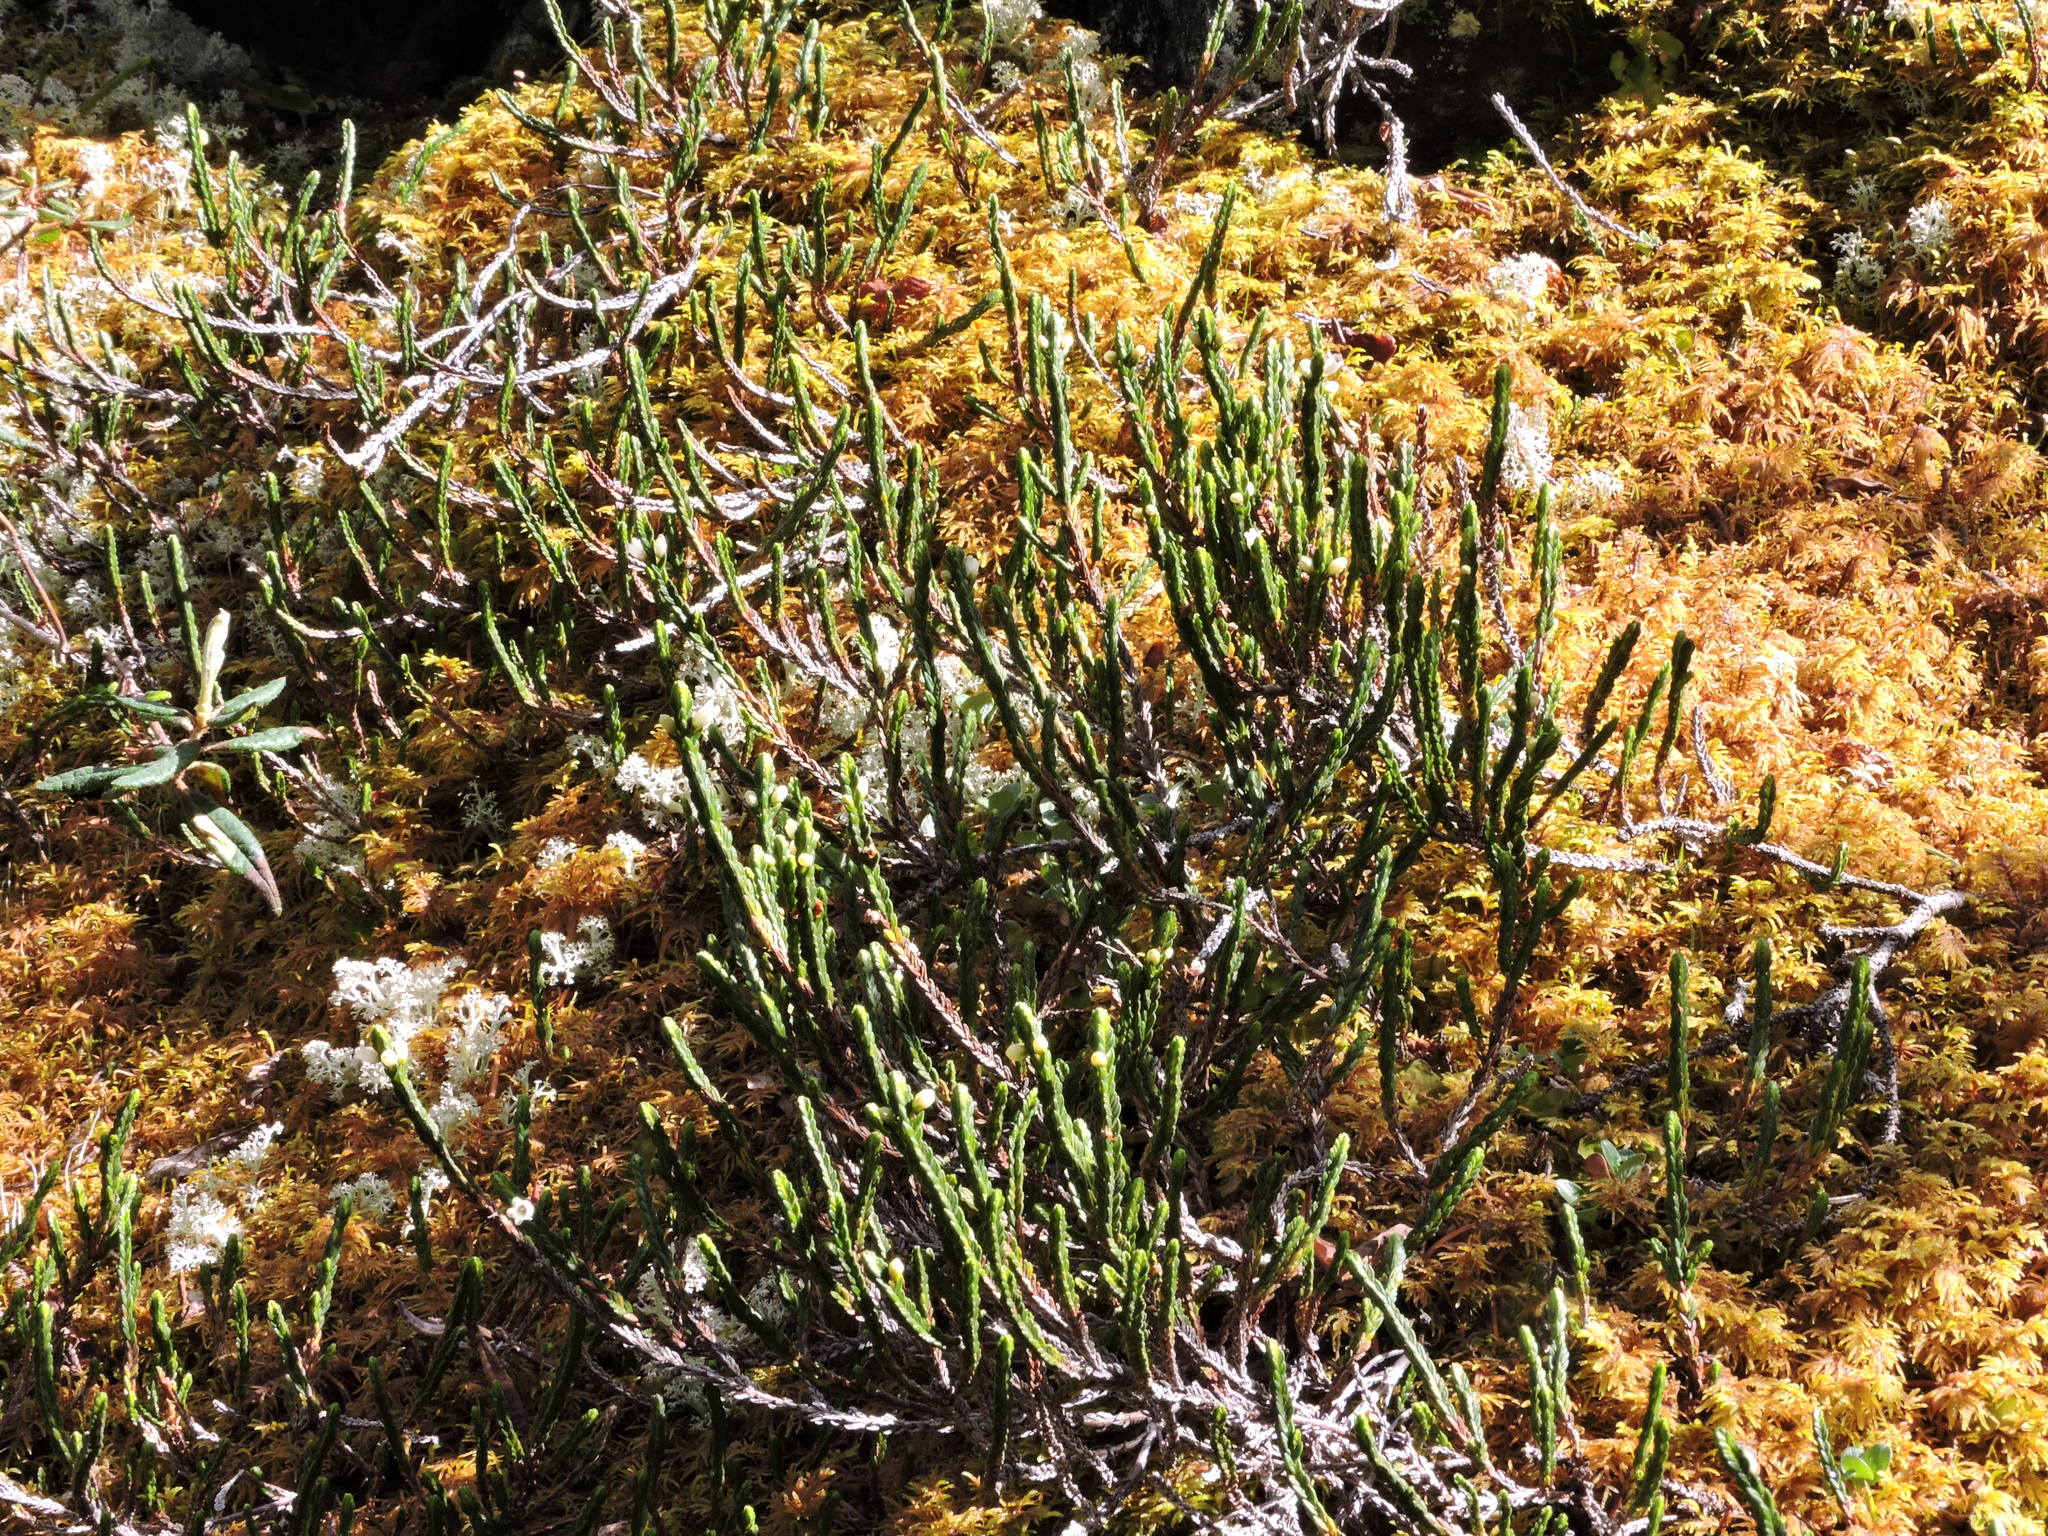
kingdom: Plantae
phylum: Tracheophyta
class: Magnoliopsida
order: Ericales
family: Ericaceae
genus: Cassiope
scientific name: Cassiope tetragona
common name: Arctic bell heather
